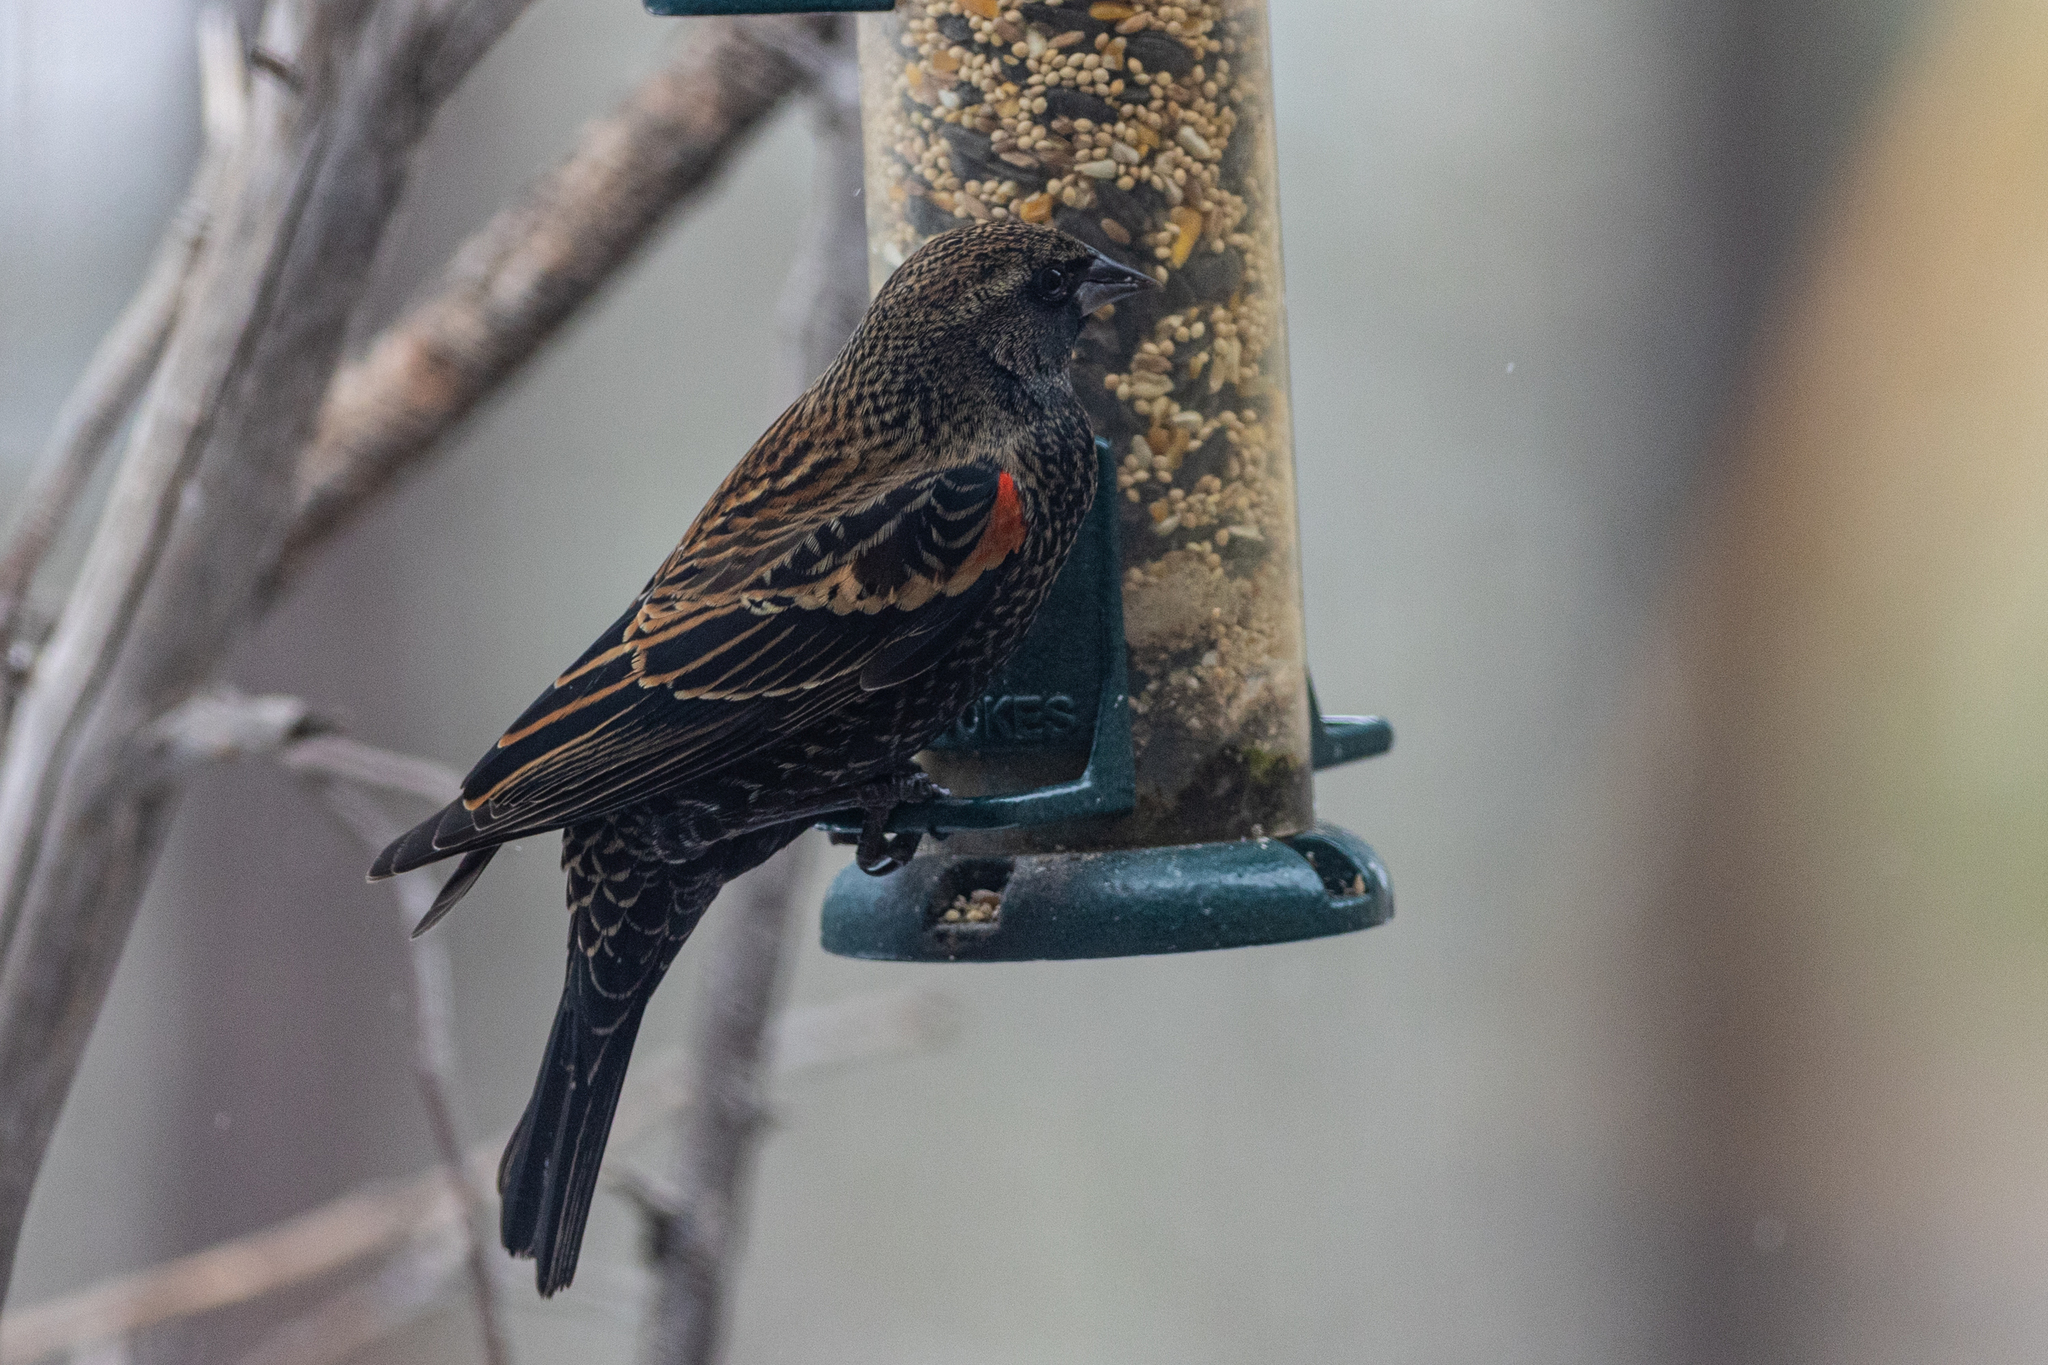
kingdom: Animalia
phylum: Chordata
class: Aves
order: Passeriformes
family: Icteridae
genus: Agelaius
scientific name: Agelaius phoeniceus
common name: Red-winged blackbird
